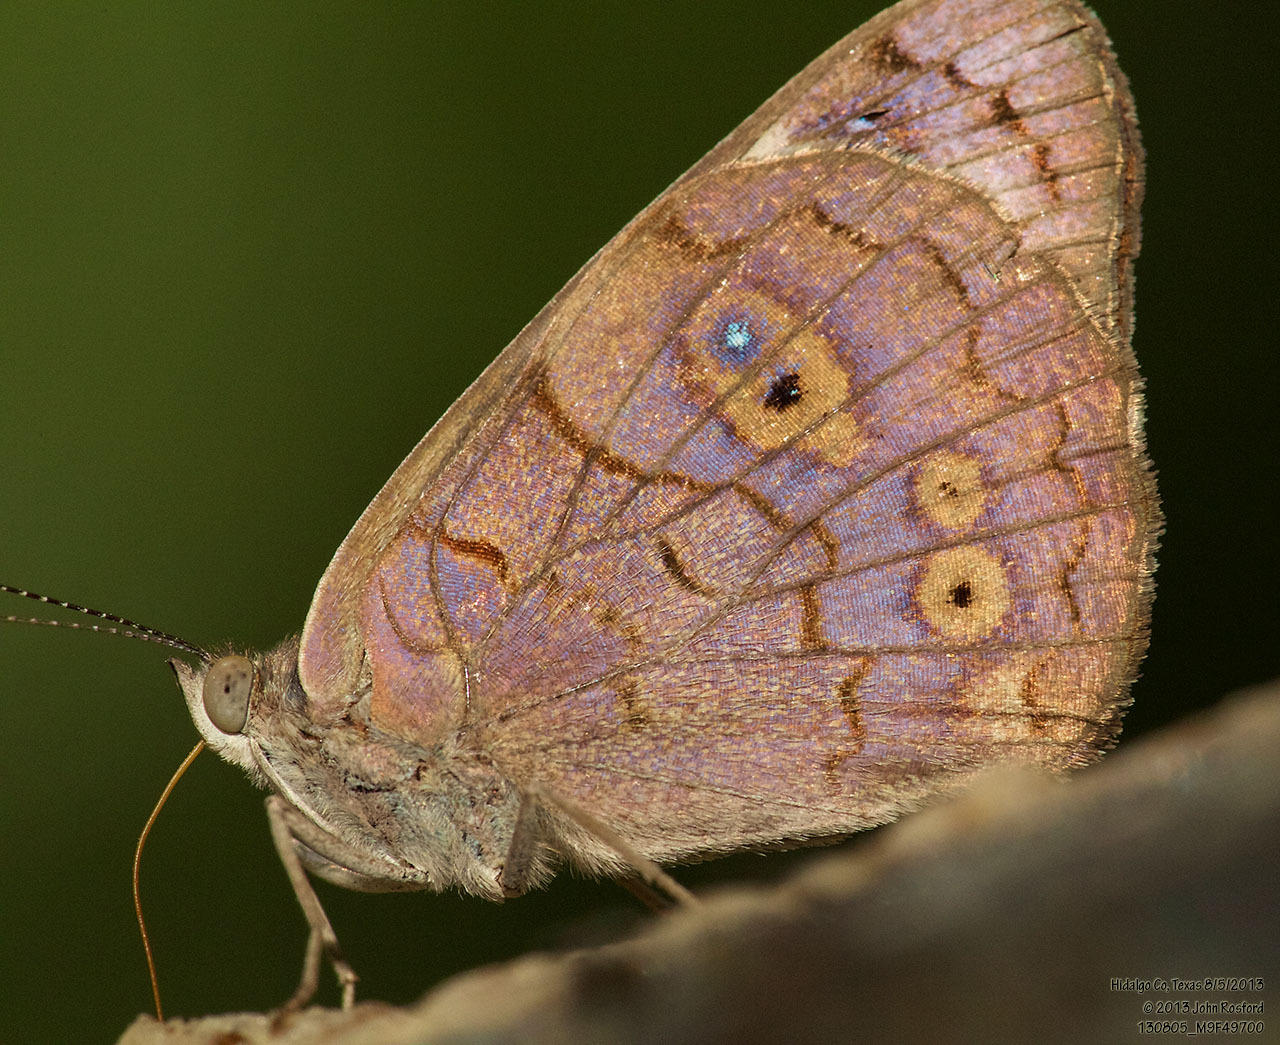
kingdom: Animalia
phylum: Arthropoda
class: Insecta
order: Lepidoptera
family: Nymphalidae
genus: Eunica
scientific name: Eunica monima
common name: Dingy purplewing
